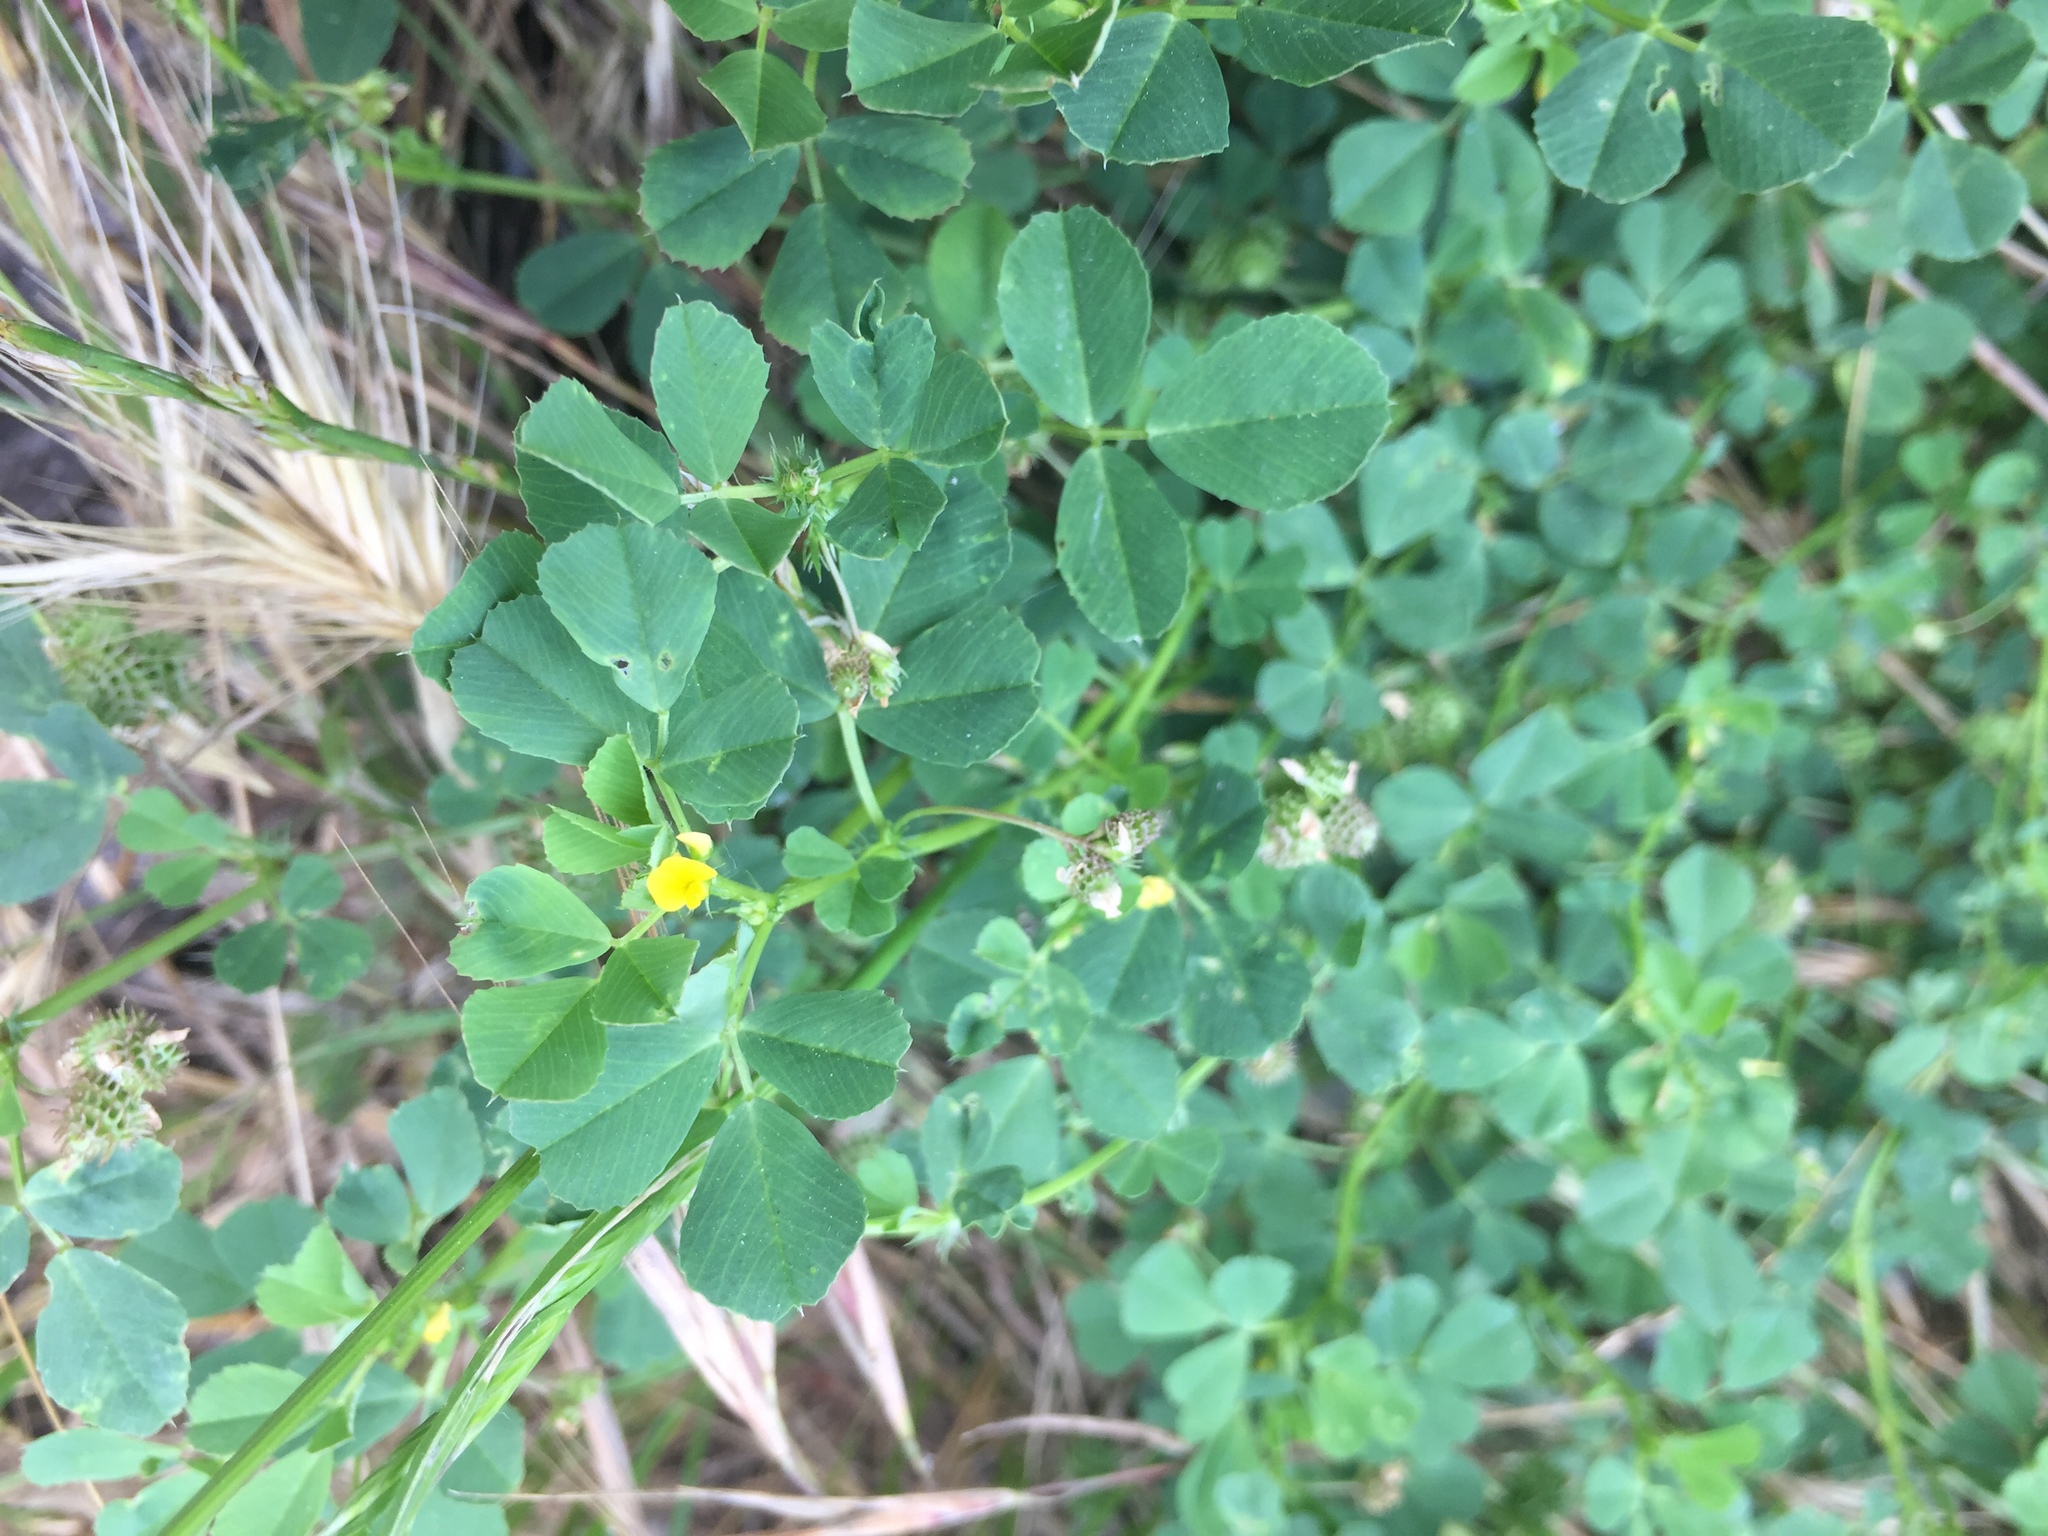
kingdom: Plantae
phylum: Tracheophyta
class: Magnoliopsida
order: Fabales
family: Fabaceae
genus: Medicago
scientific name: Medicago polymorpha
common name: Burclover
